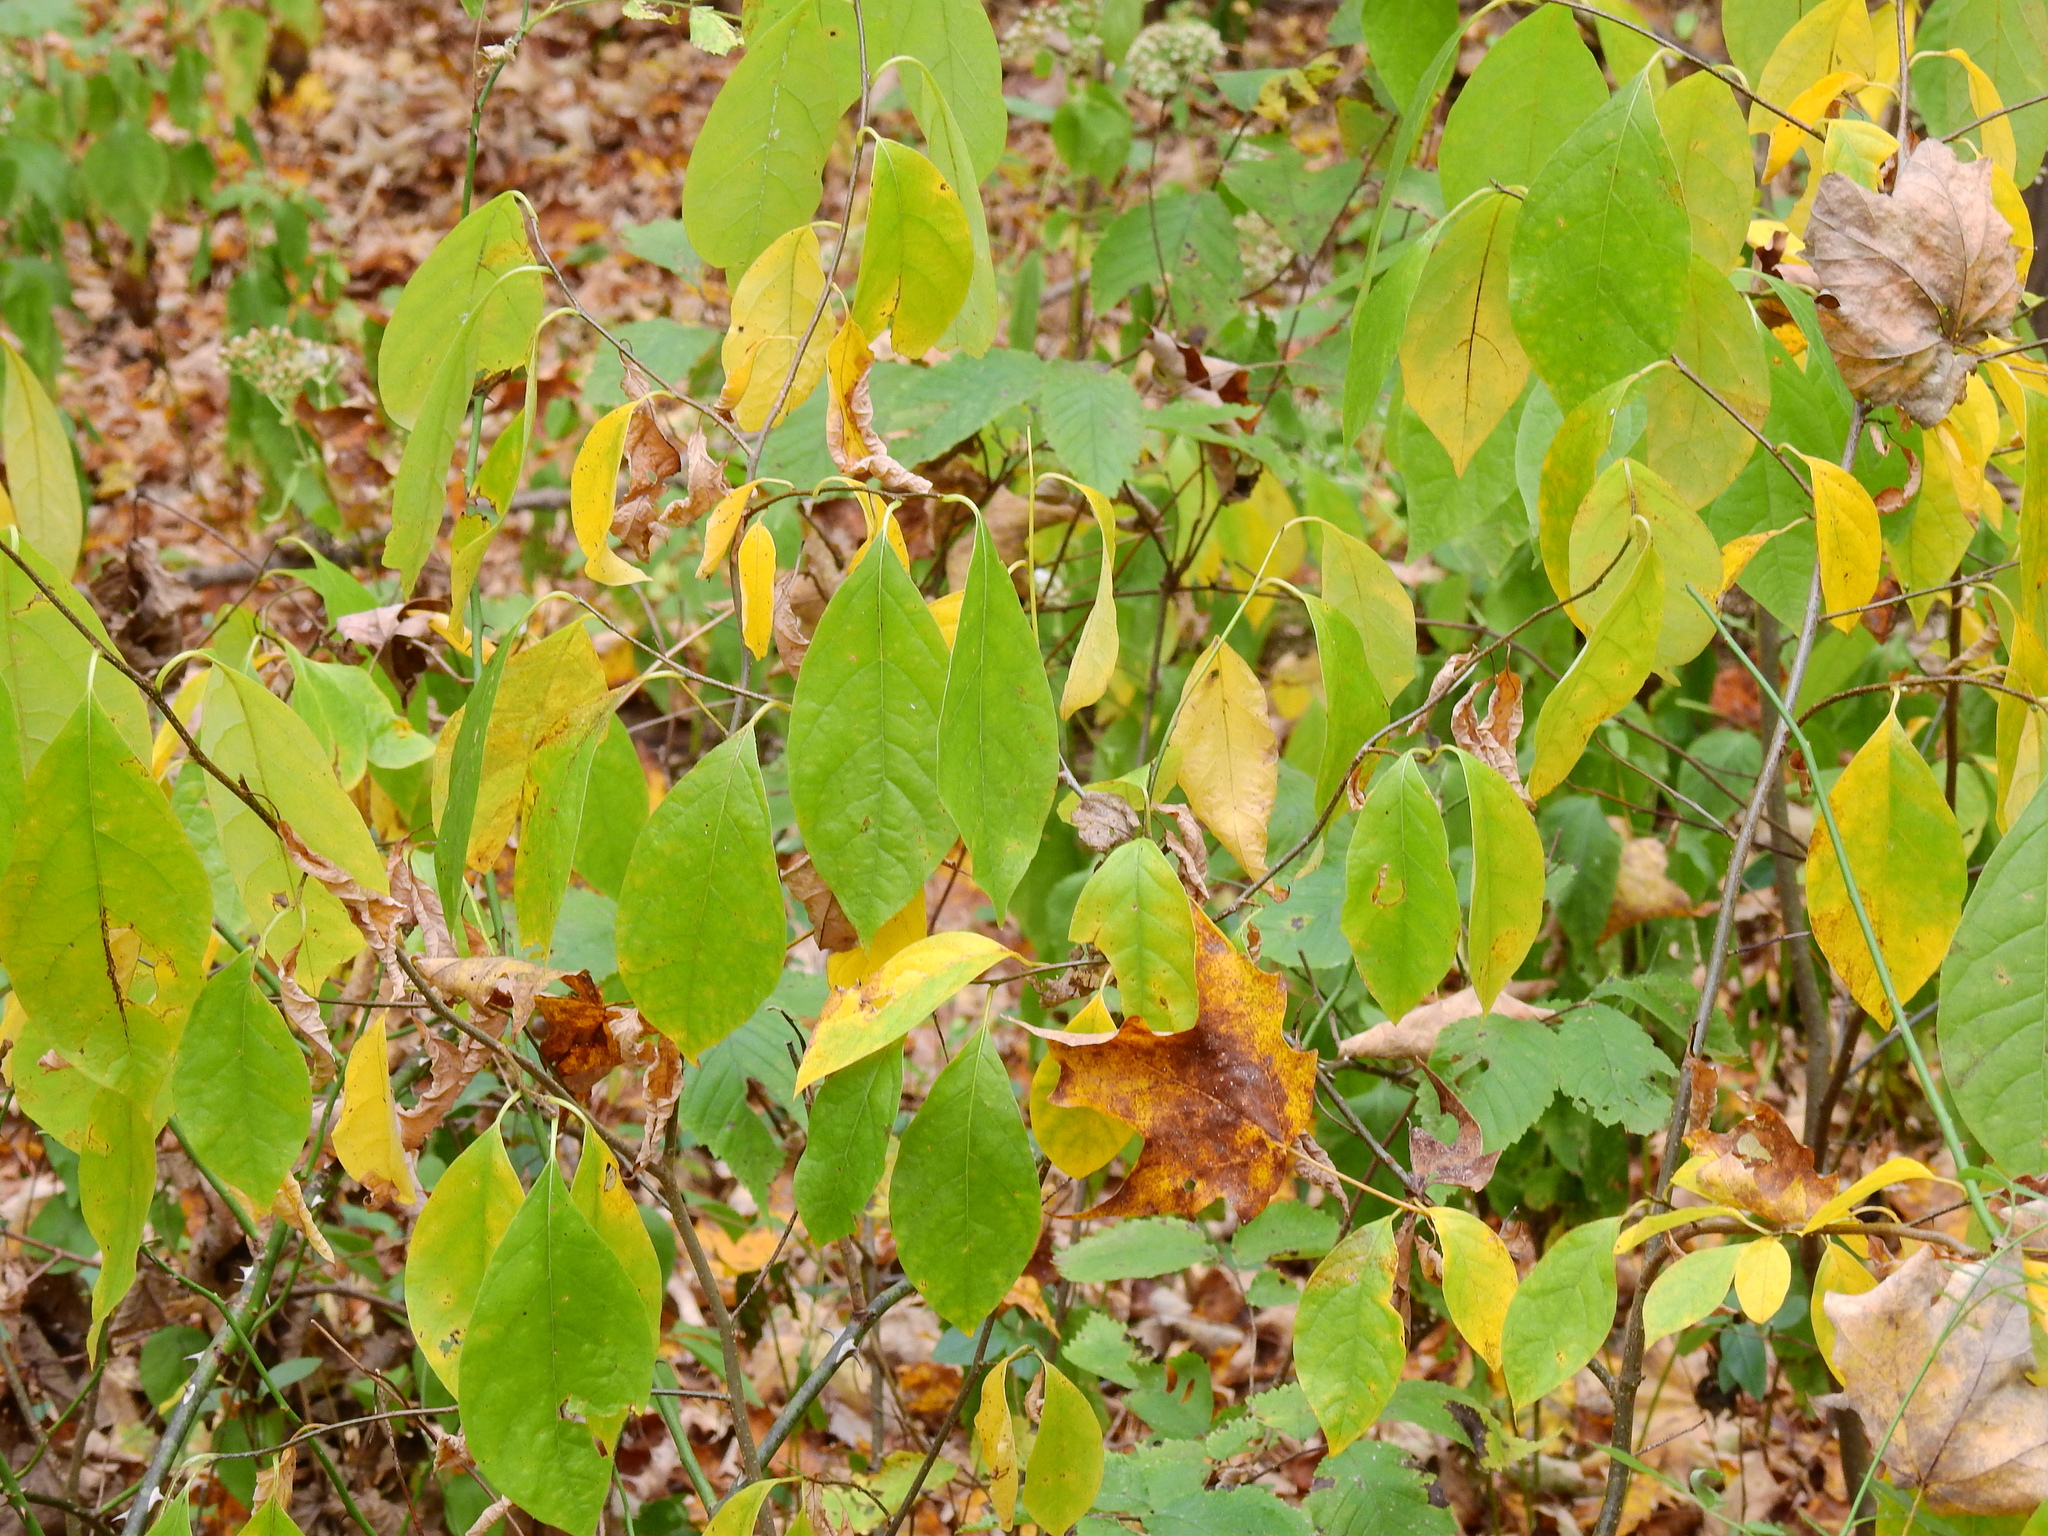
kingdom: Plantae
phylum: Tracheophyta
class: Magnoliopsida
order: Laurales
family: Lauraceae
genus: Lindera
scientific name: Lindera benzoin
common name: Spicebush
